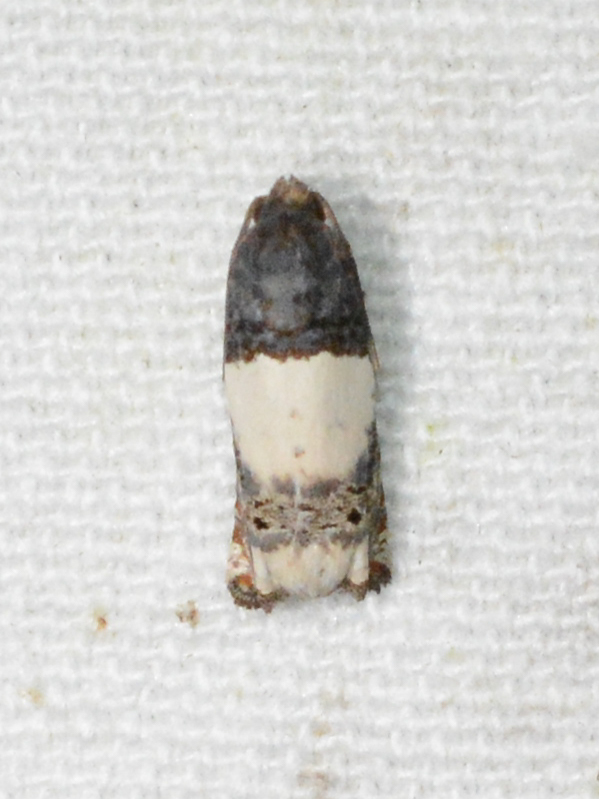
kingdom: Animalia
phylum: Arthropoda
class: Insecta
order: Lepidoptera
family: Tortricidae
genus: Epiblema
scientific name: Epiblema scudderiana
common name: Goldenrod gall moth
